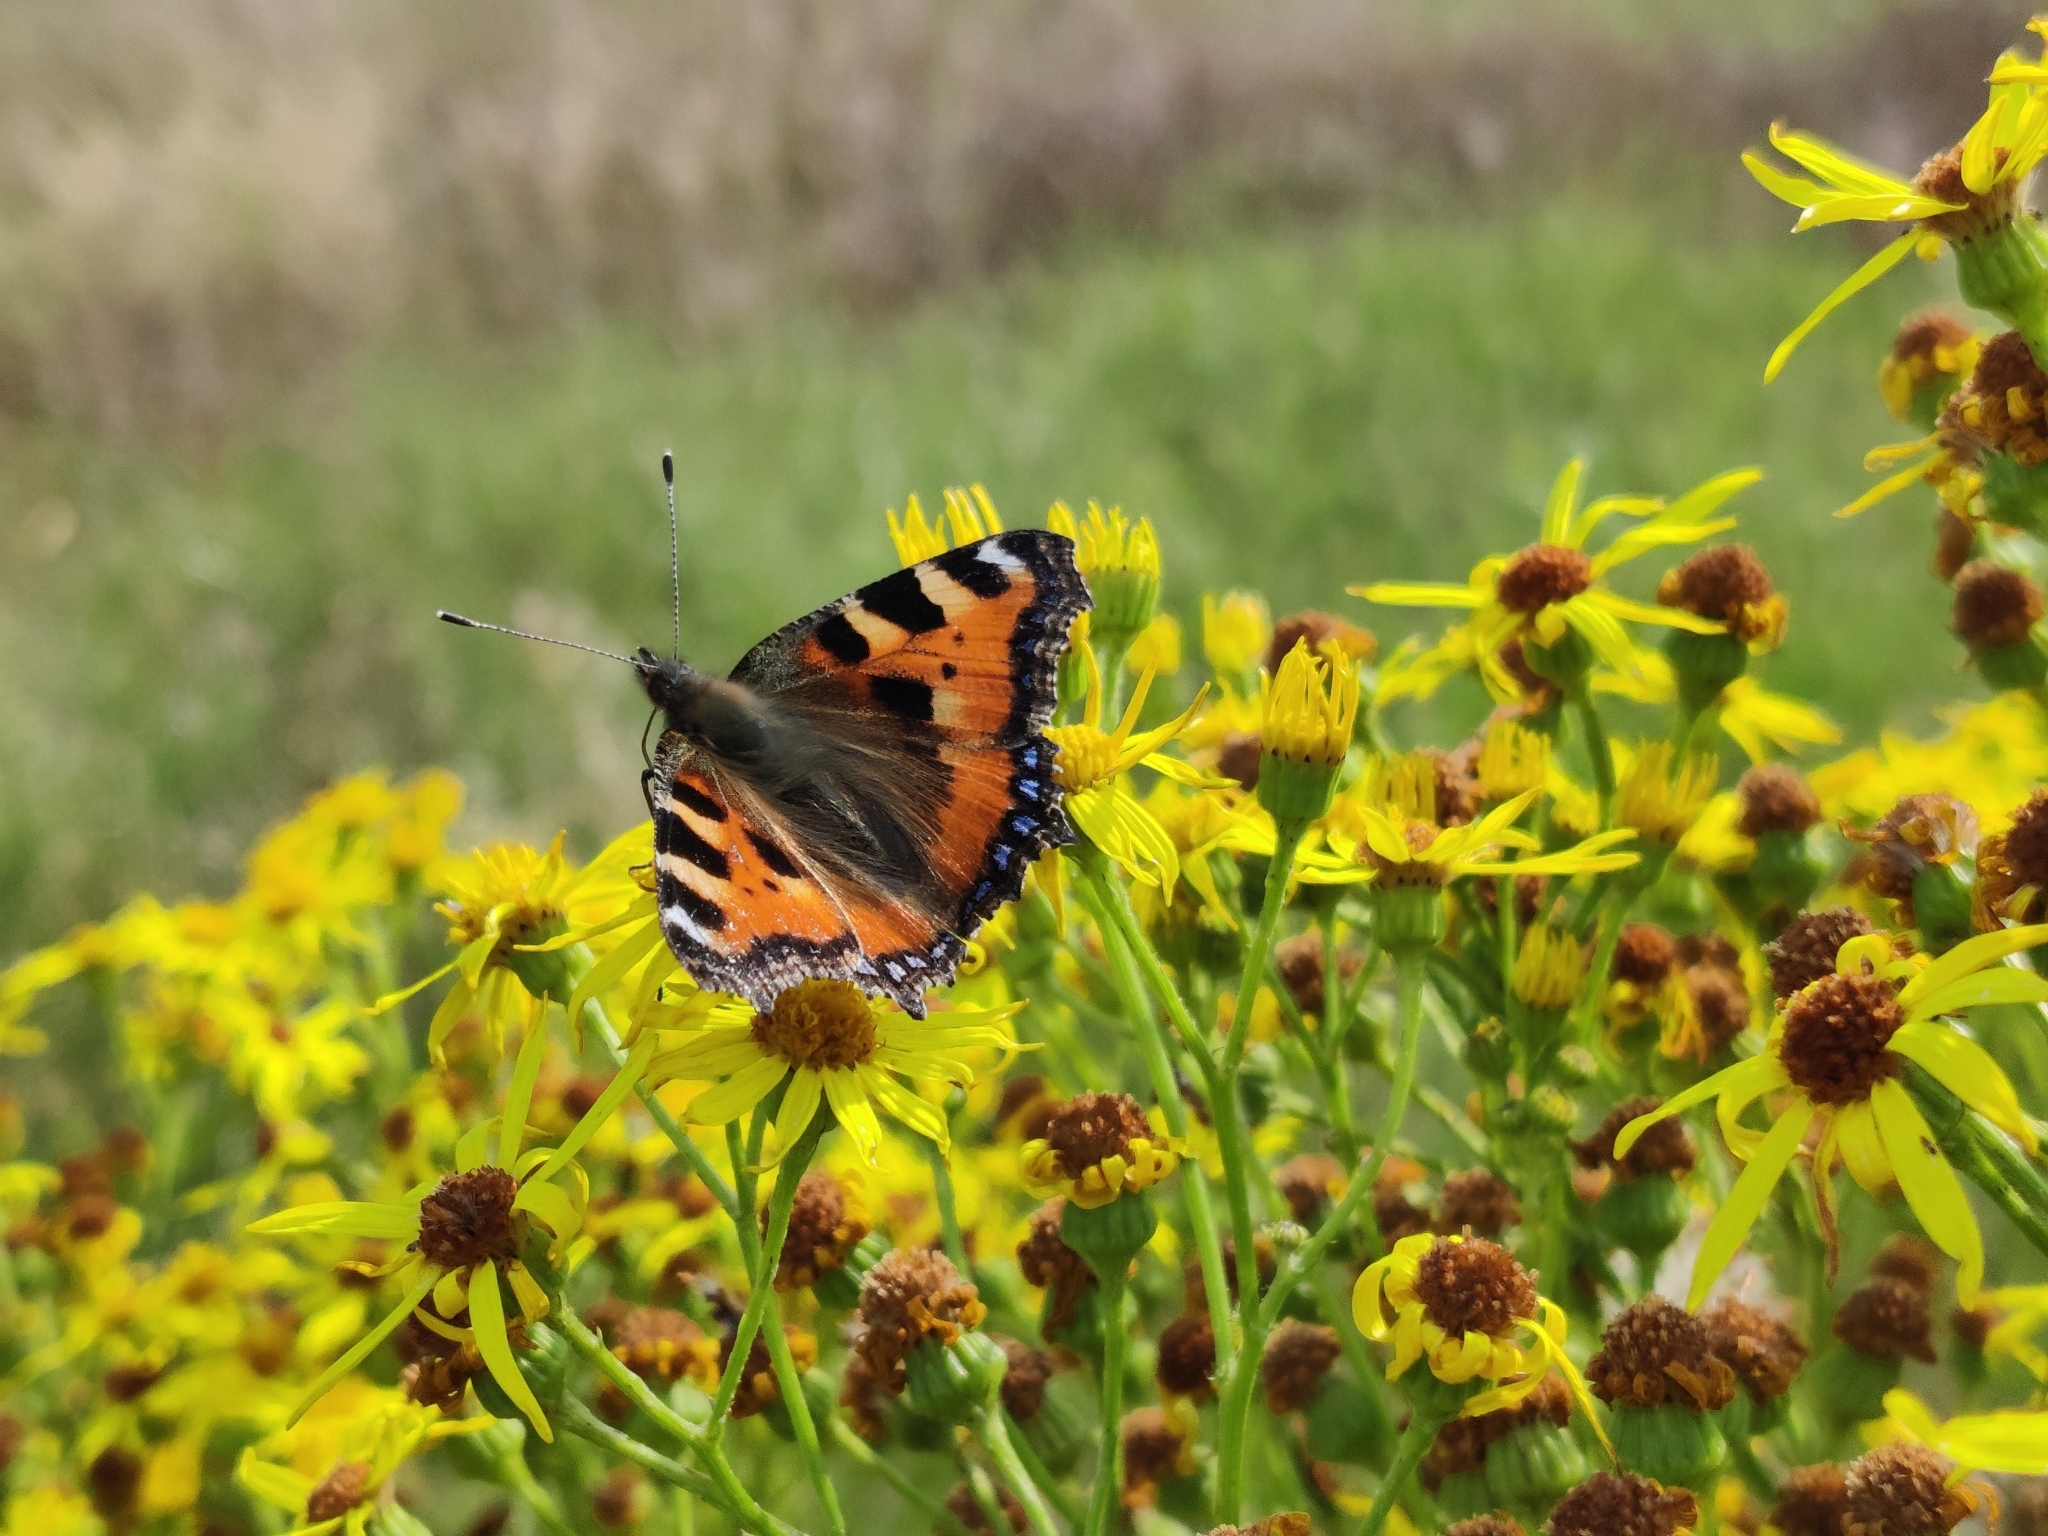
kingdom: Animalia
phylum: Arthropoda
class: Insecta
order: Lepidoptera
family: Nymphalidae
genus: Aglais
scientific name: Aglais urticae
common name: Small tortoiseshell
